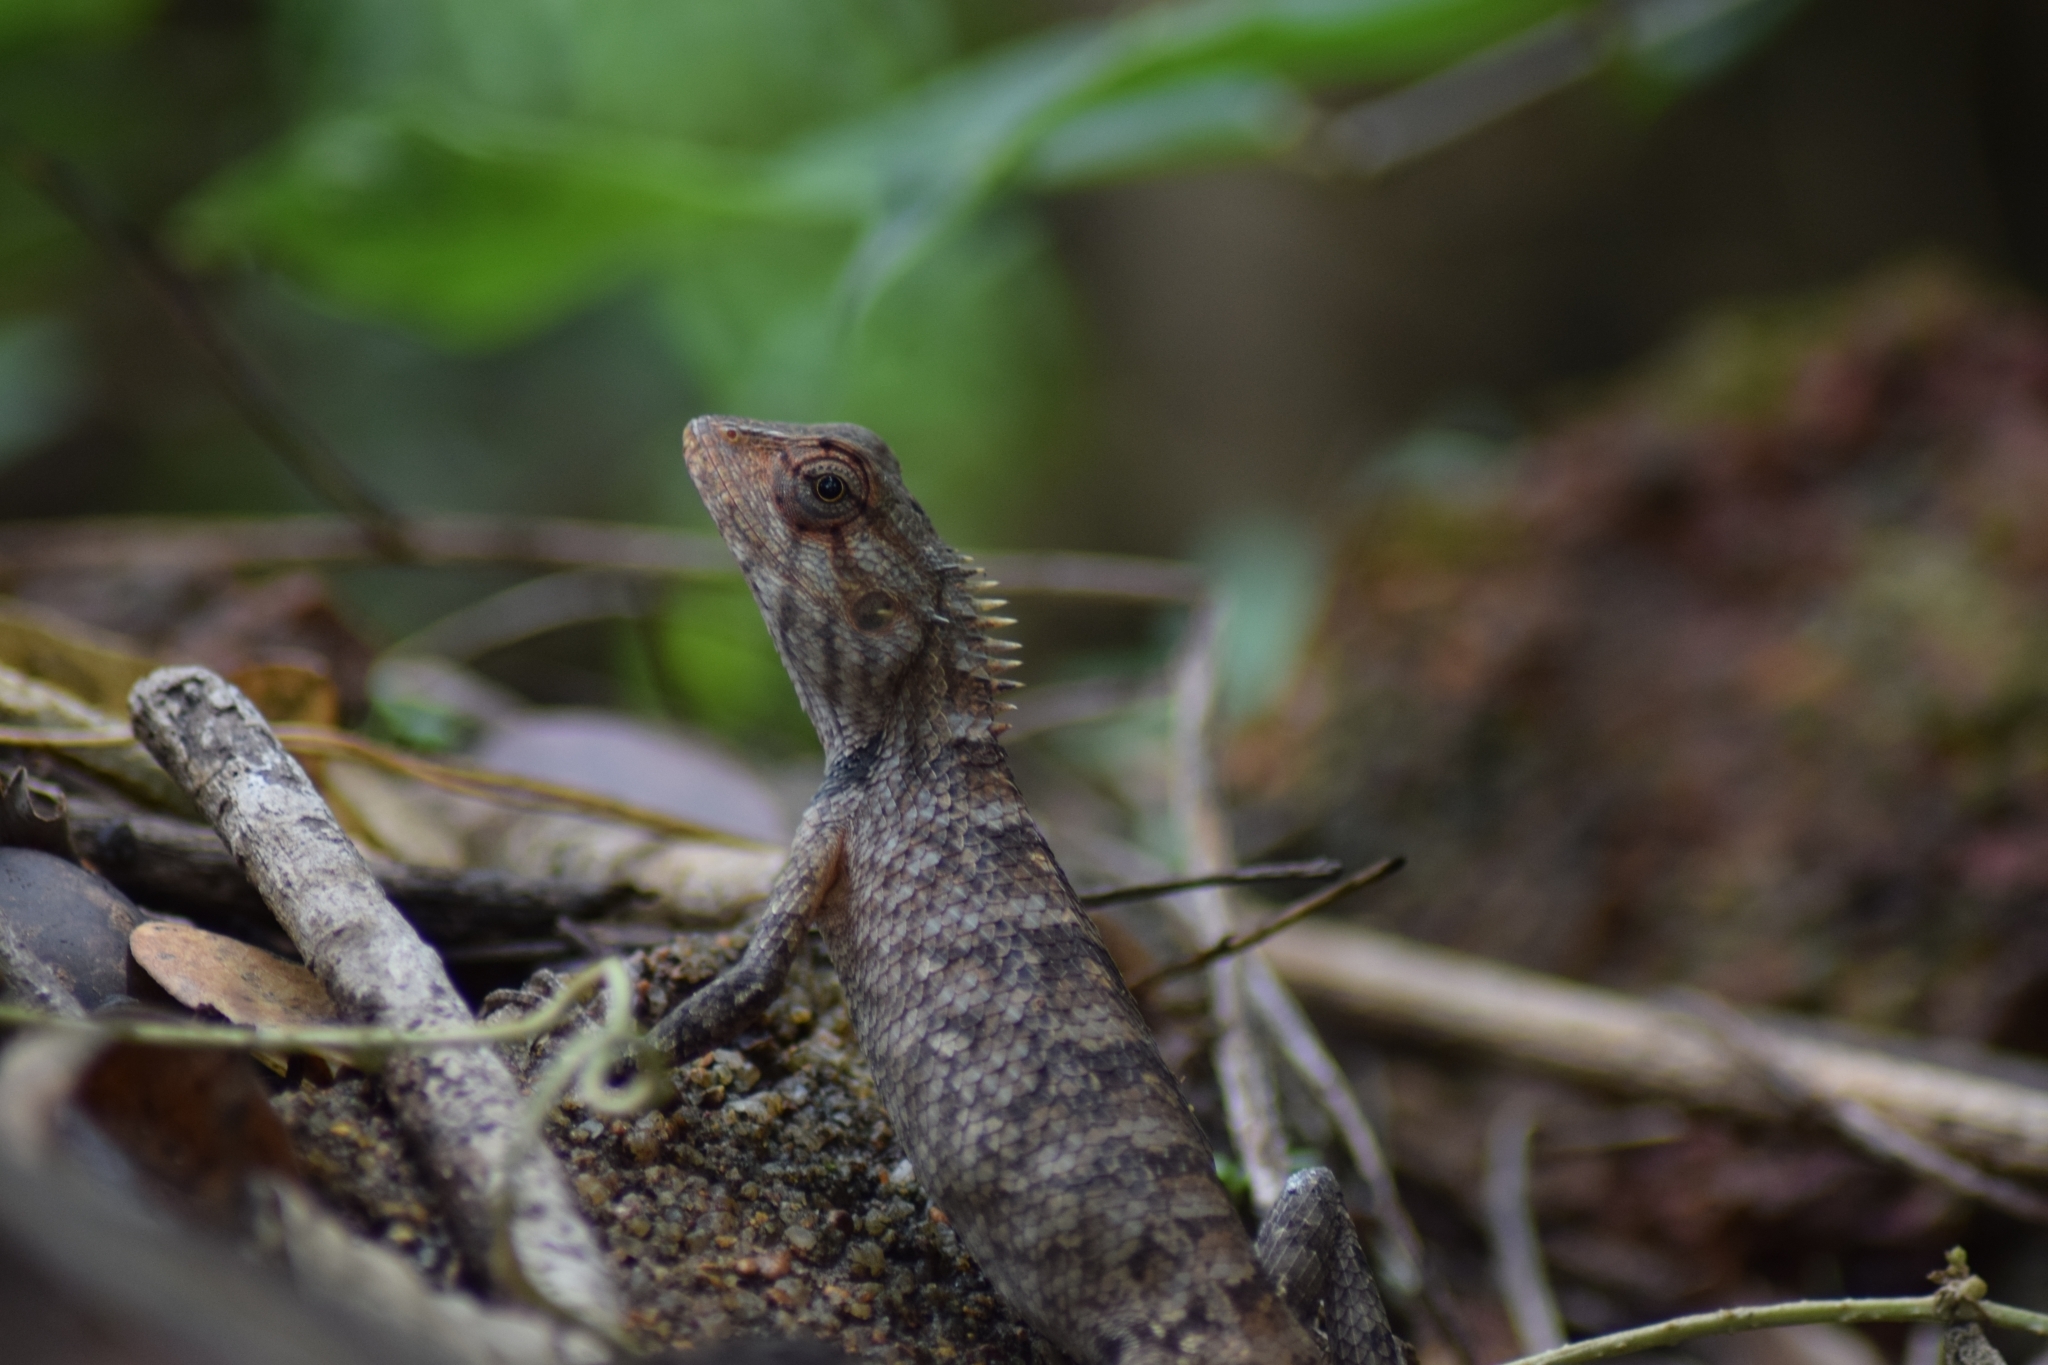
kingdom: Animalia
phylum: Chordata
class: Squamata
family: Agamidae
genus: Calotes
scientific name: Calotes versicolor
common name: Oriental garden lizard
